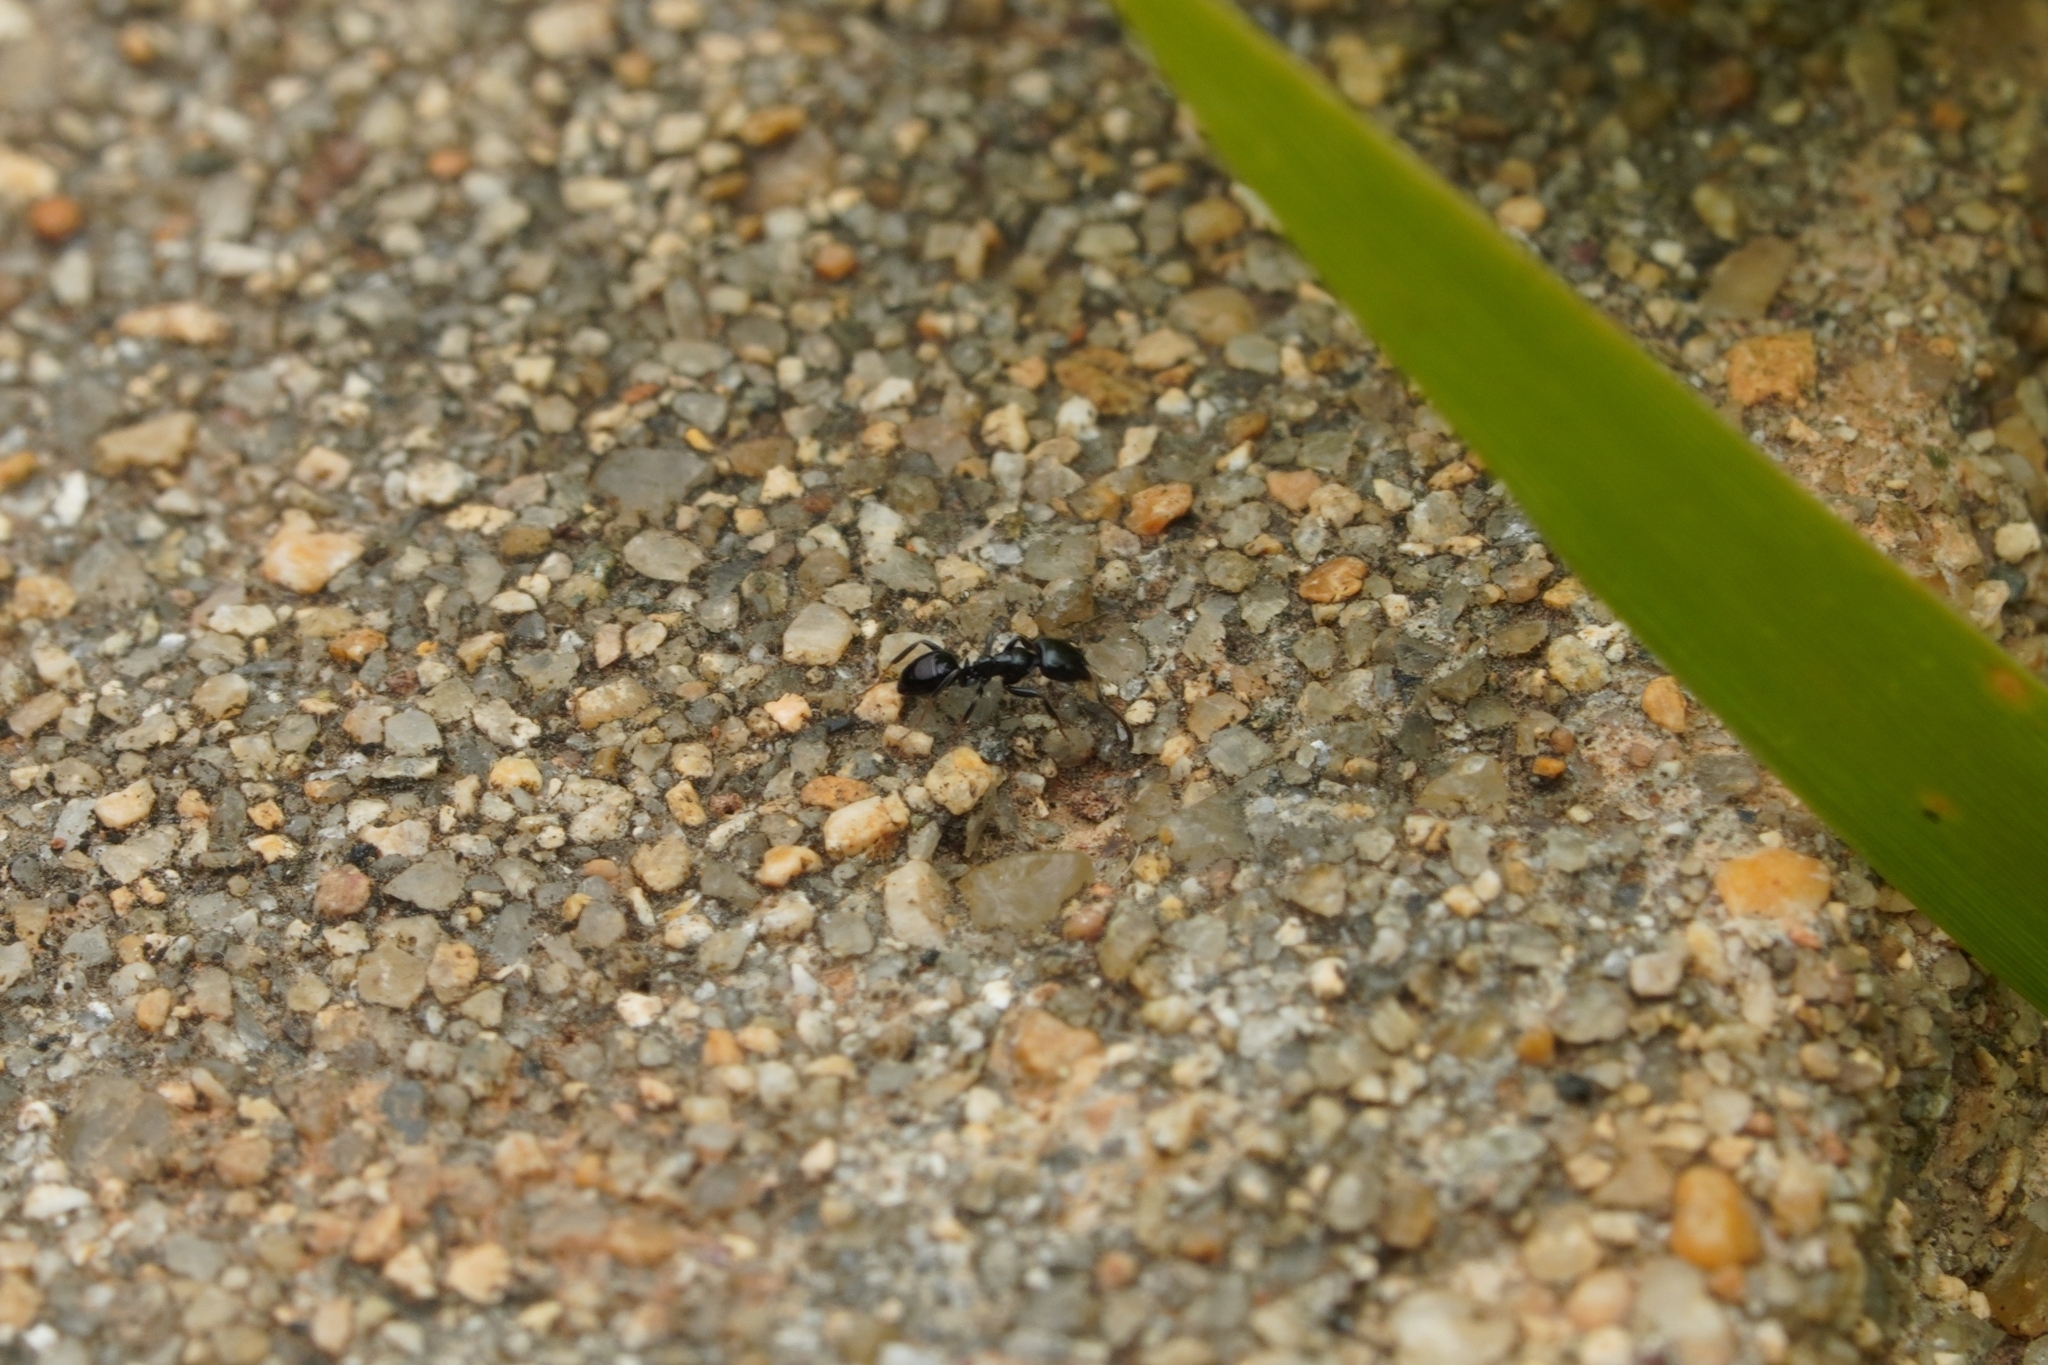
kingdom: Animalia
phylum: Arthropoda
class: Insecta
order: Hymenoptera
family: Formicidae
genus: Ochetellus
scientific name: Ochetellus glaber
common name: Ant
